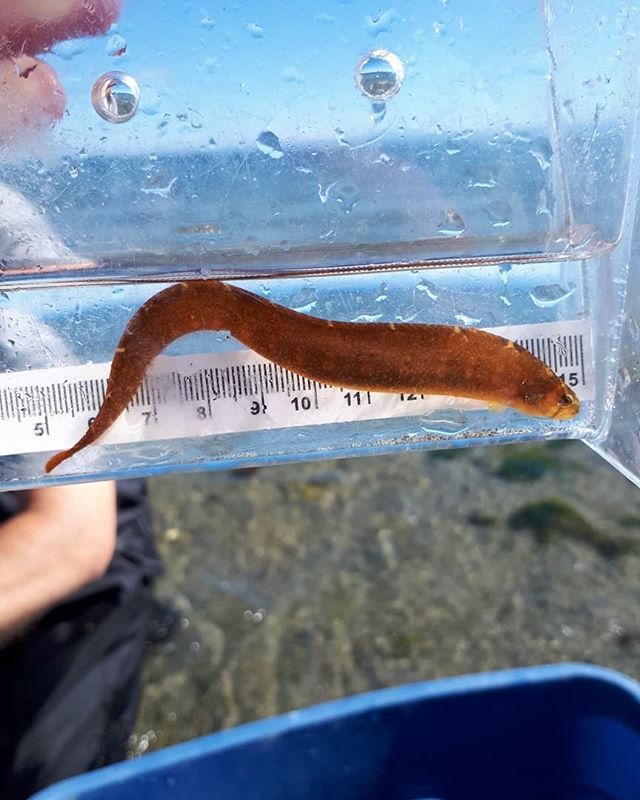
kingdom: Animalia
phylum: Chordata
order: Perciformes
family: Pholidae
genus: Pholis
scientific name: Pholis laeta
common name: Crescent gunnel
